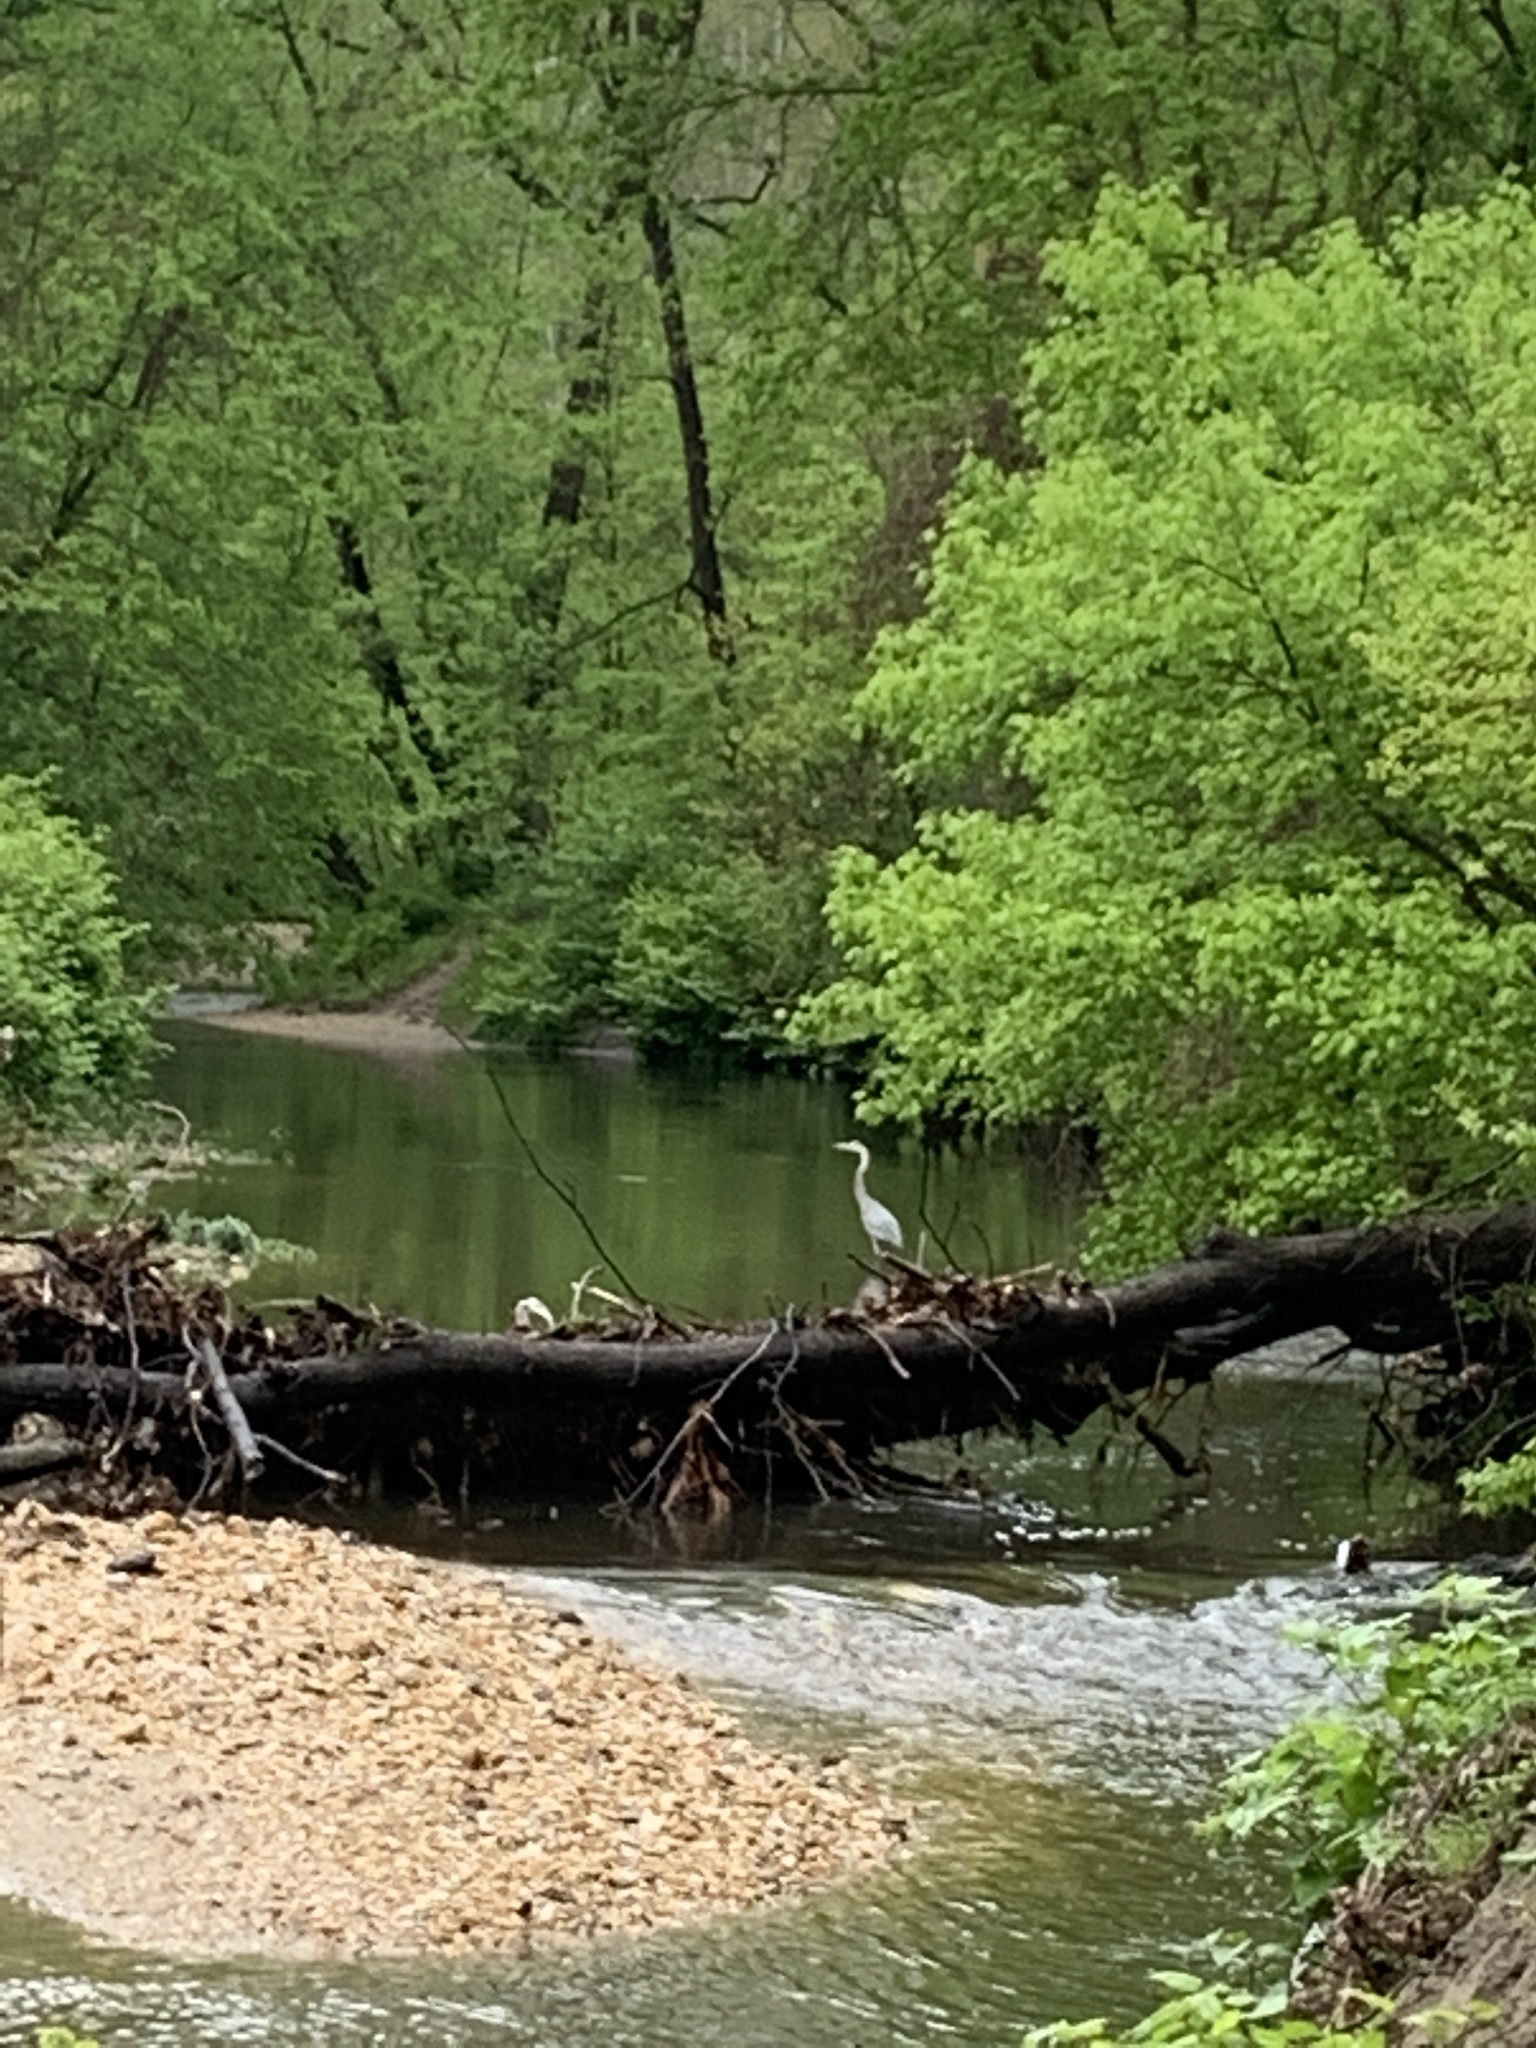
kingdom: Animalia
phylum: Chordata
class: Aves
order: Pelecaniformes
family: Ardeidae
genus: Ardea
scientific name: Ardea herodias
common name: Great blue heron
